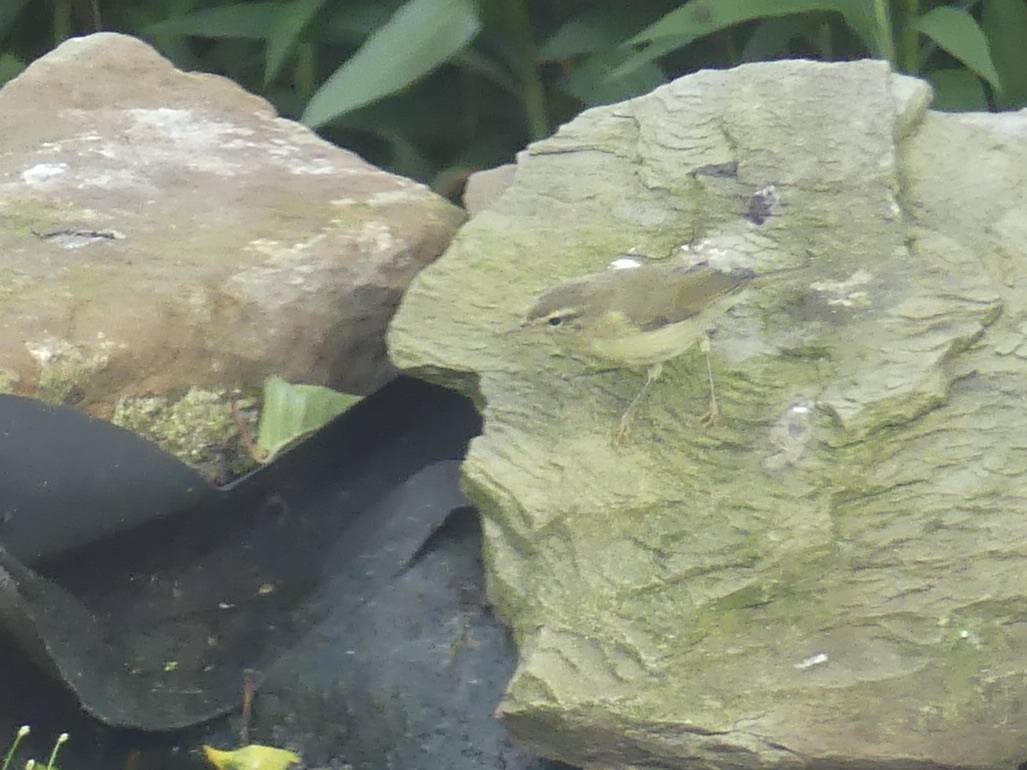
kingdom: Animalia
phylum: Chordata
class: Aves
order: Passeriformes
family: Phylloscopidae
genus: Phylloscopus
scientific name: Phylloscopus trochilus
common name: Willow warbler
